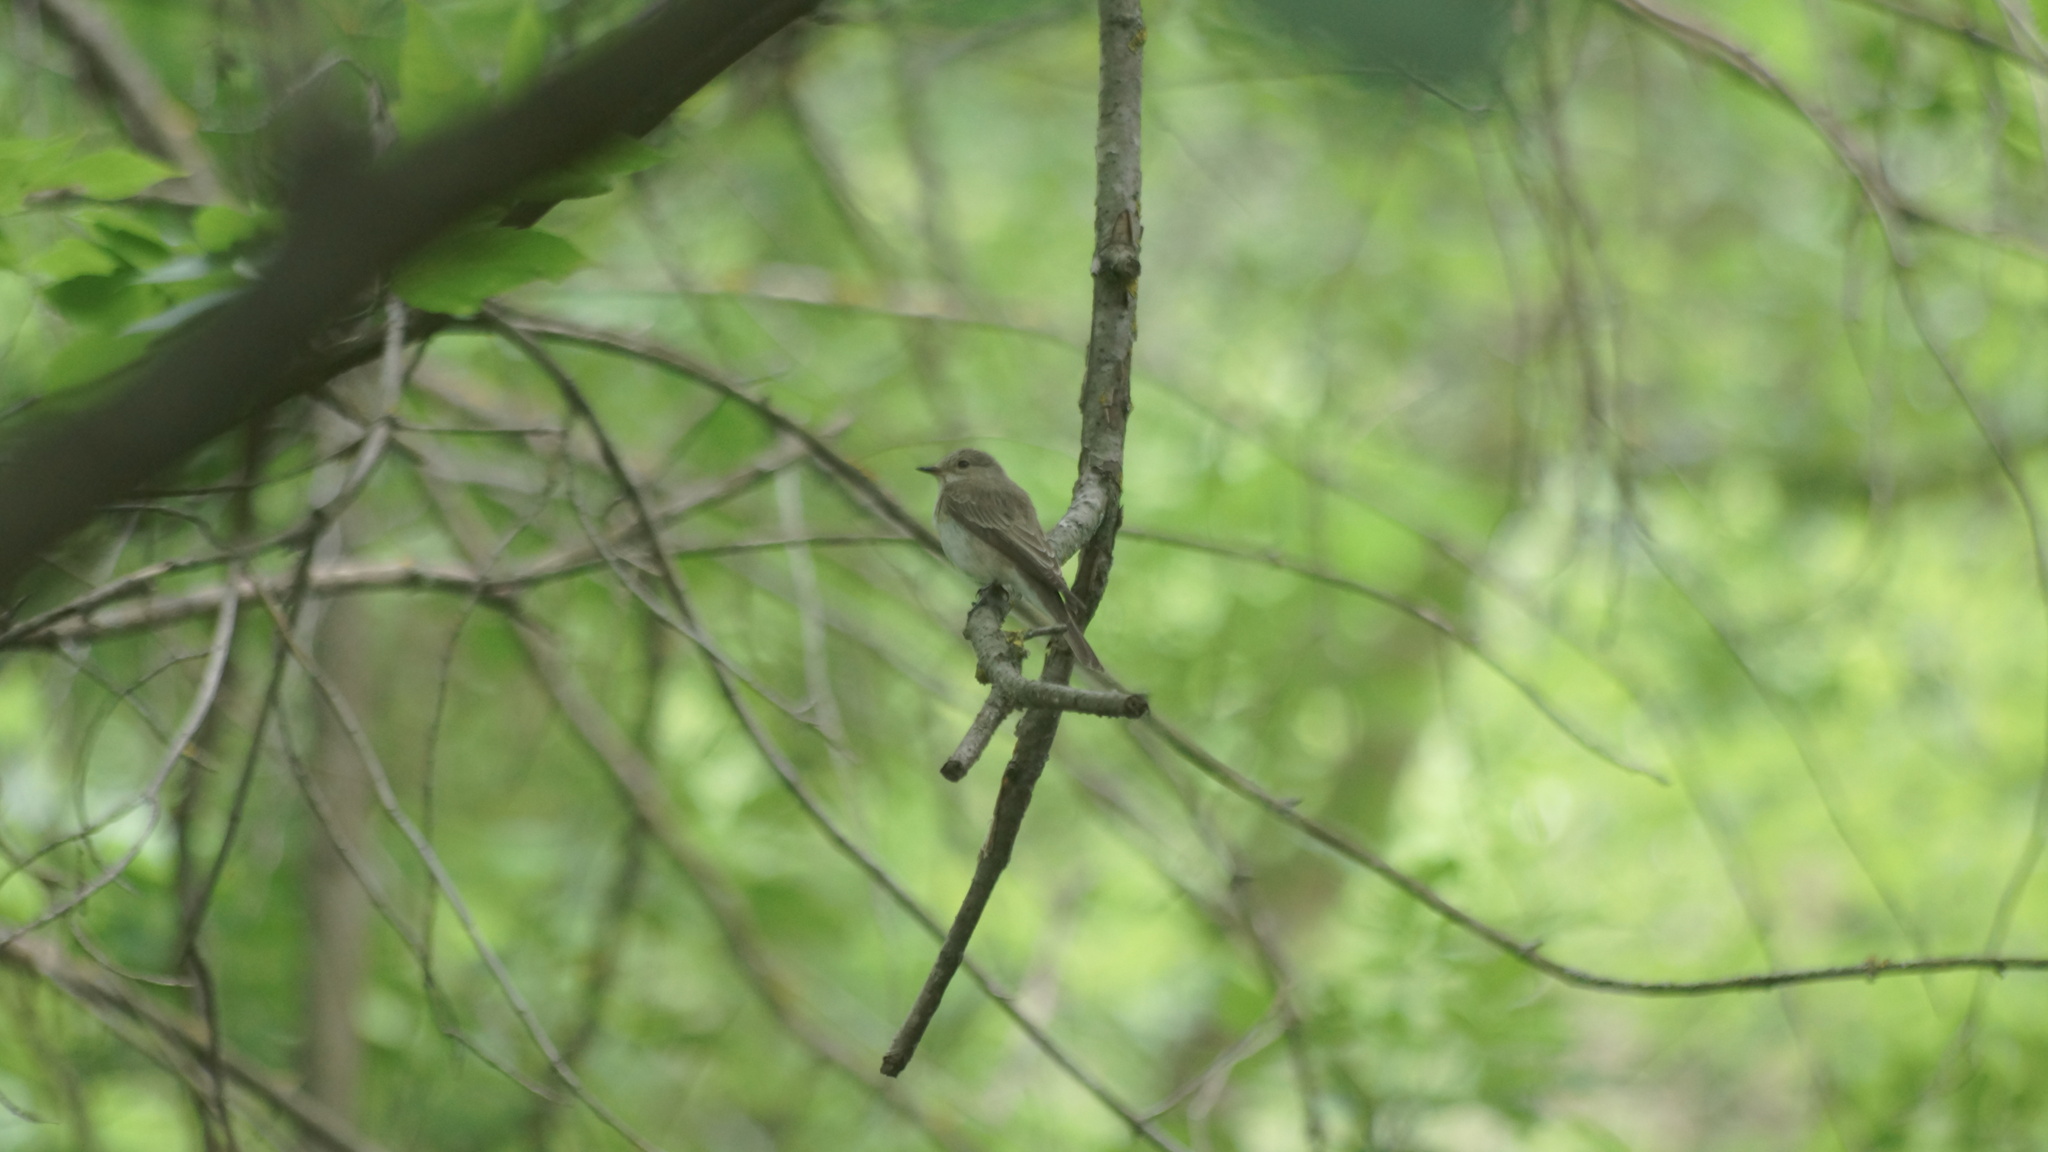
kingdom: Animalia
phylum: Chordata
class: Aves
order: Passeriformes
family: Muscicapidae
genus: Muscicapa
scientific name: Muscicapa striata
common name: Spotted flycatcher
